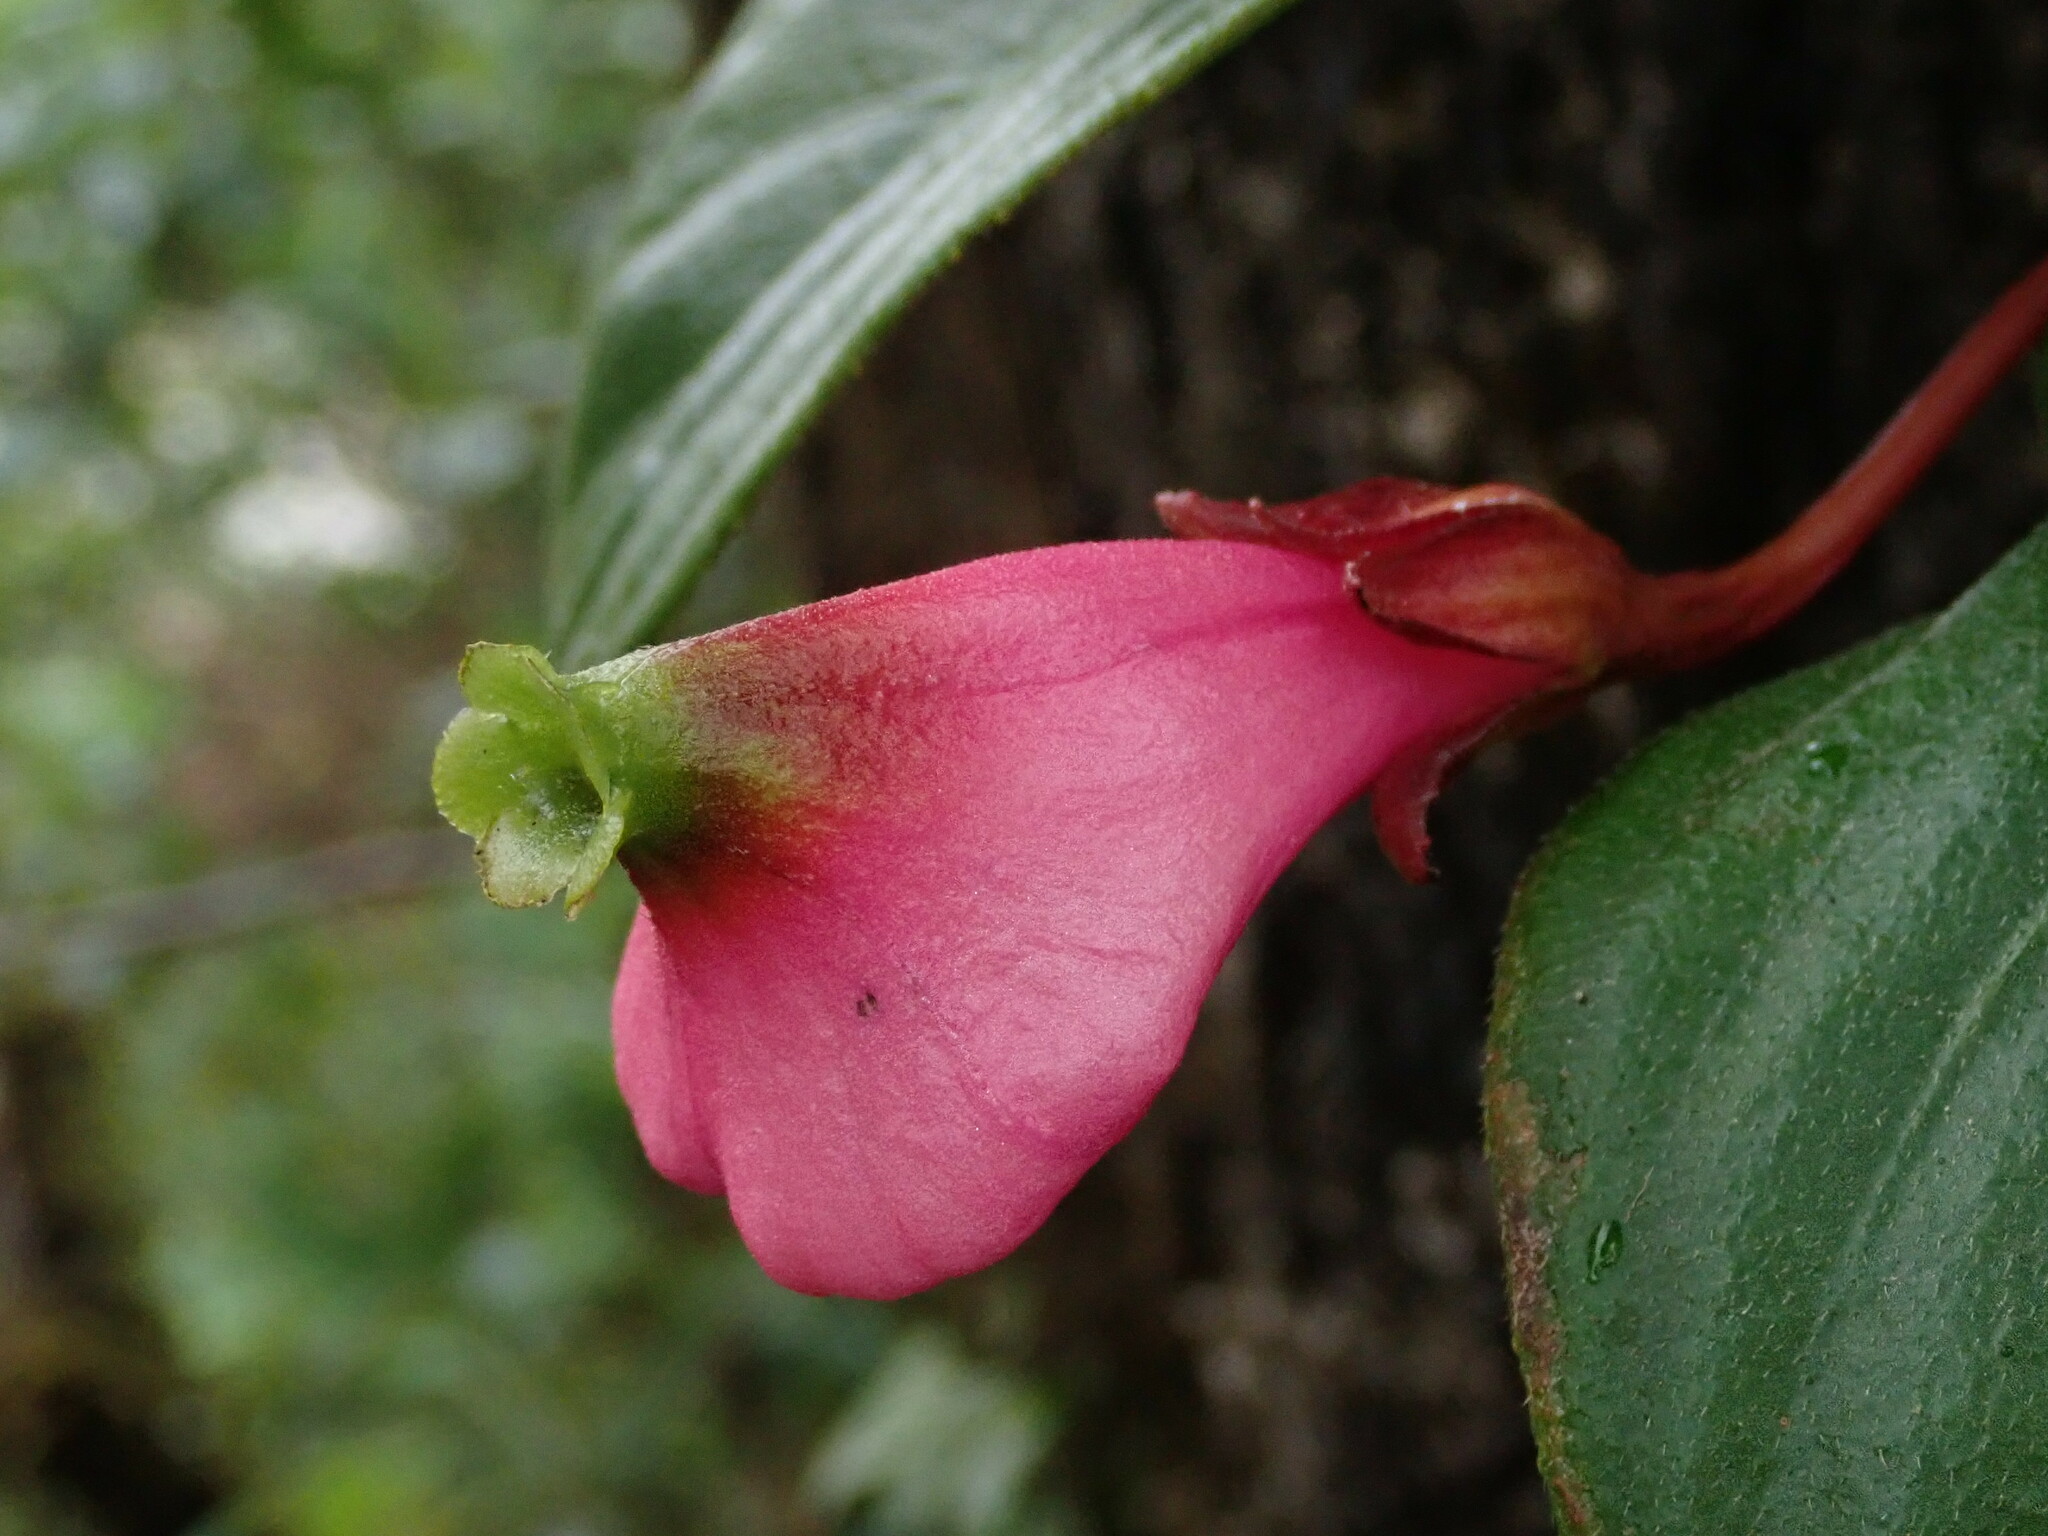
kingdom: Plantae
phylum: Tracheophyta
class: Magnoliopsida
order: Lamiales
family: Gesneriaceae
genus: Columnea
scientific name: Columnea hypocyrtantha
